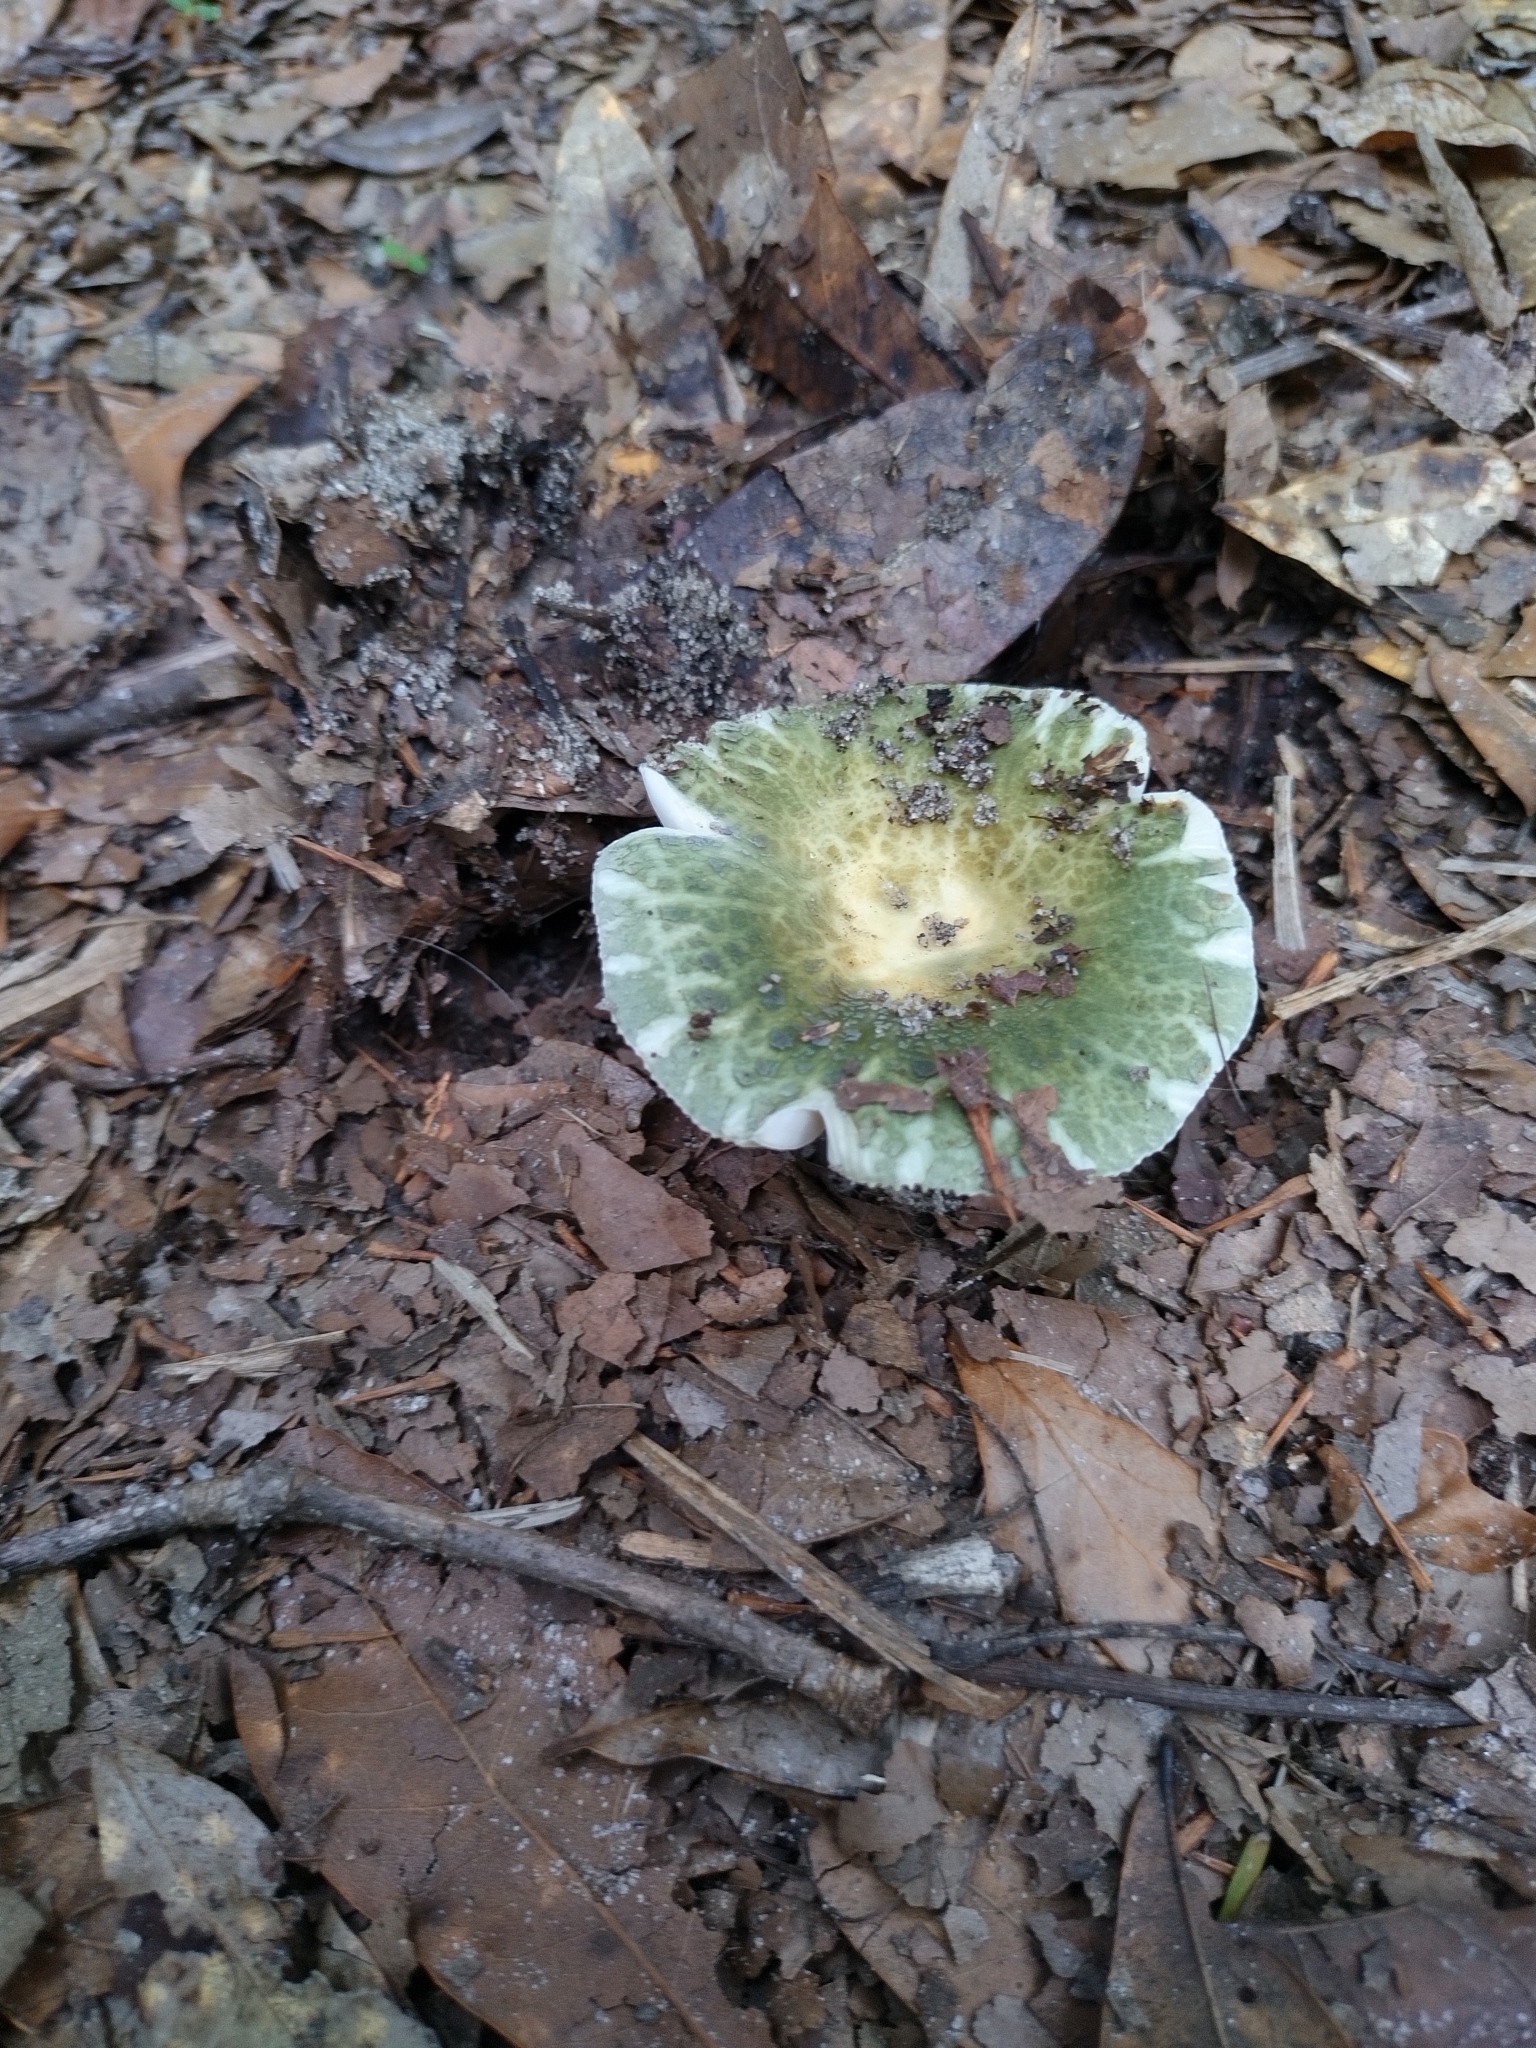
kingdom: Fungi
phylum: Basidiomycota
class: Agaricomycetes
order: Russulales
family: Russulaceae
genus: Russula
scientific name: Russula parvovirescens
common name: Blue-green cracking russula
